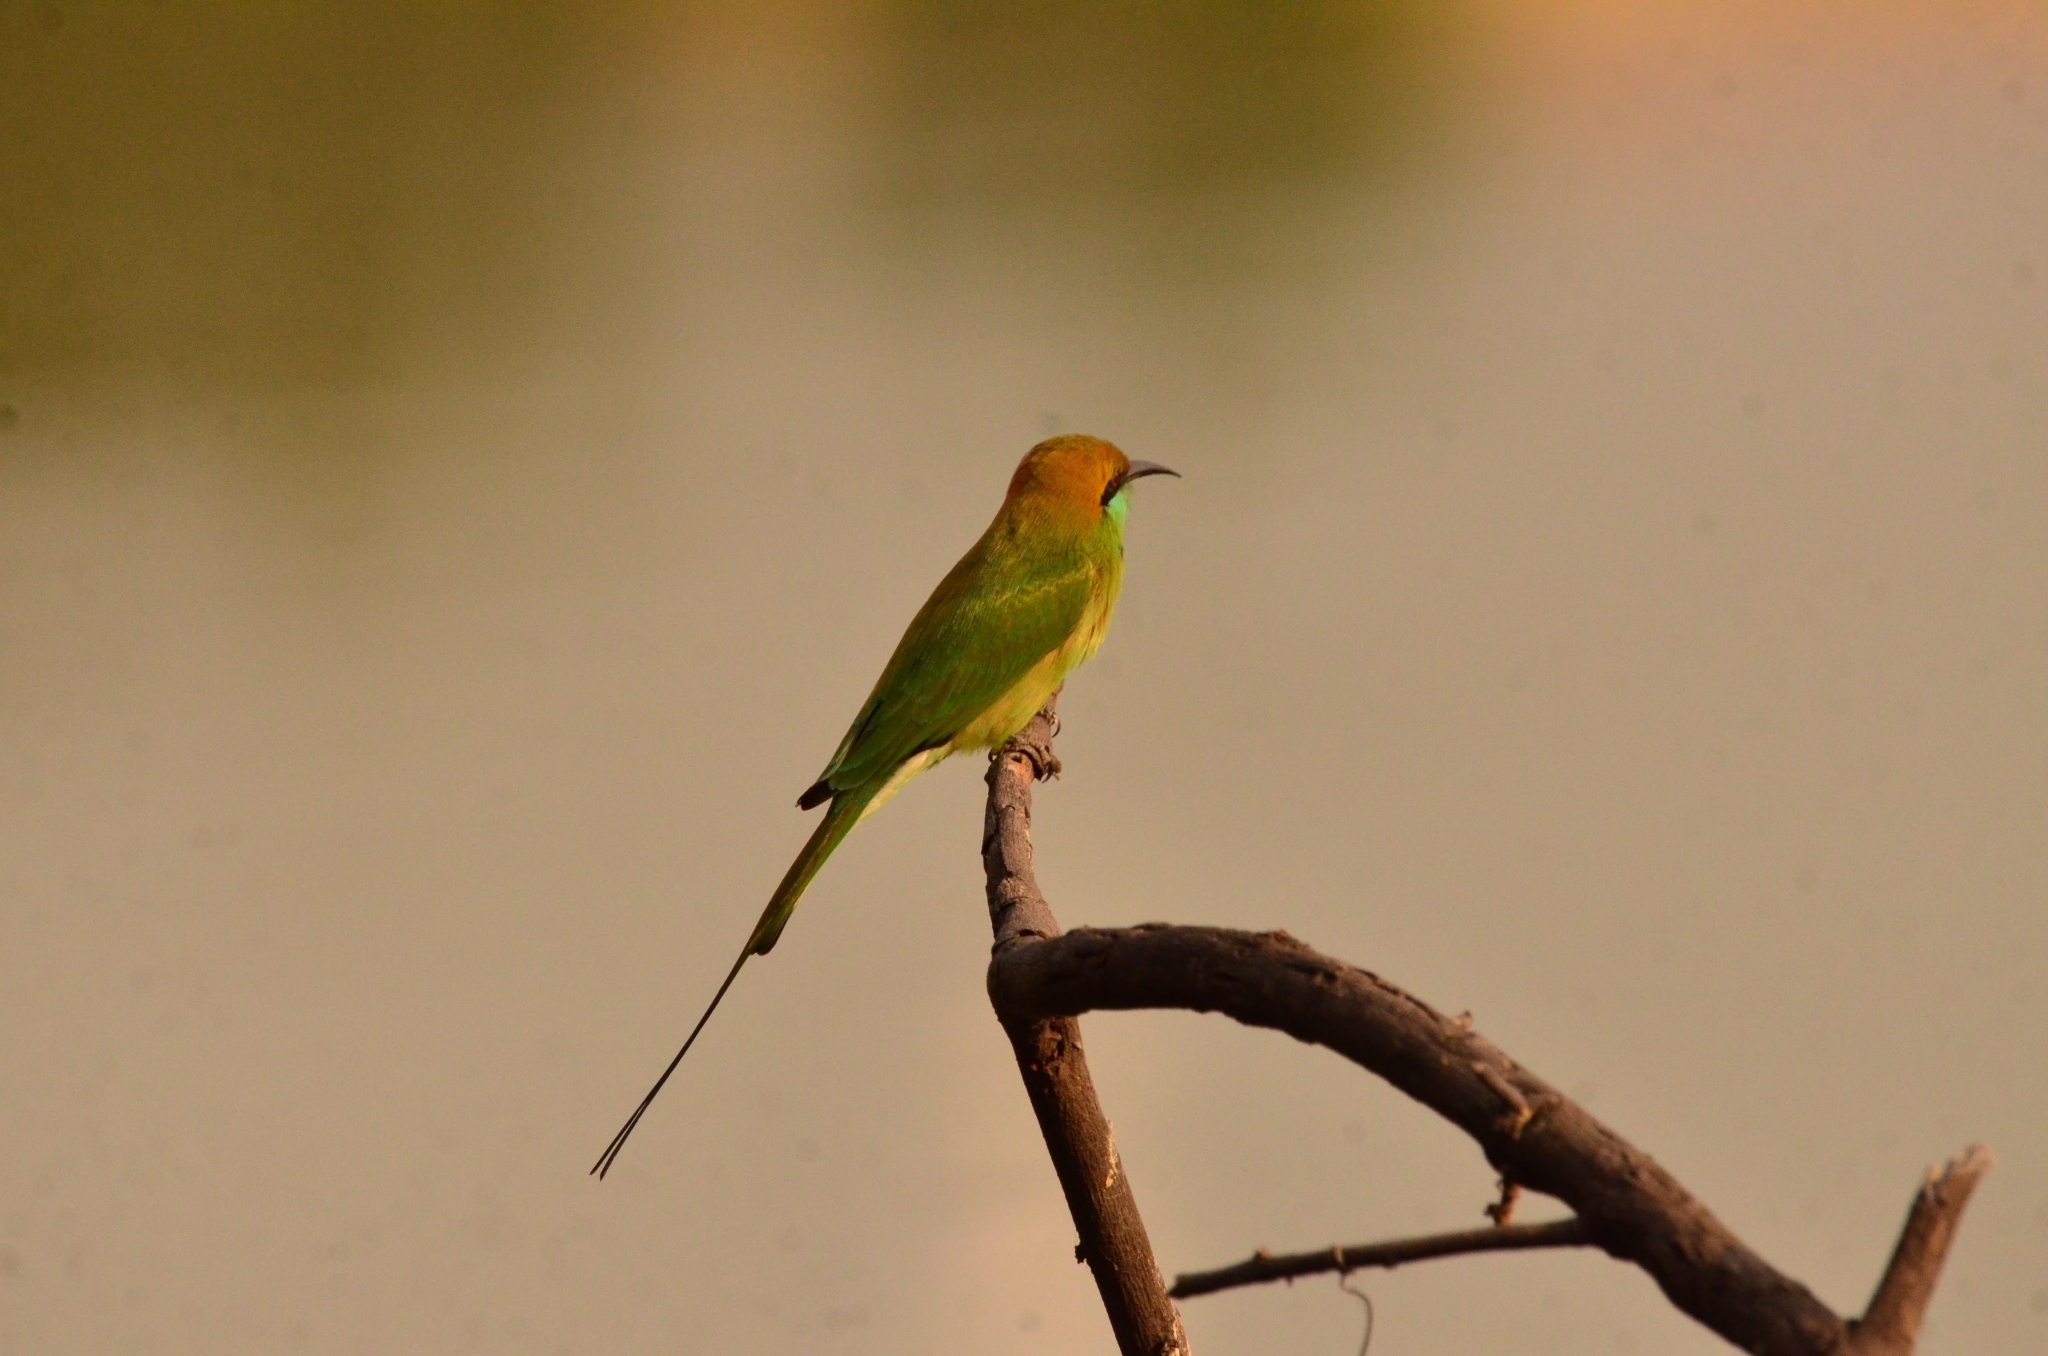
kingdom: Animalia
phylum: Chordata
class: Aves
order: Coraciiformes
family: Meropidae
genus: Merops
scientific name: Merops orientalis
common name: Green bee-eater
